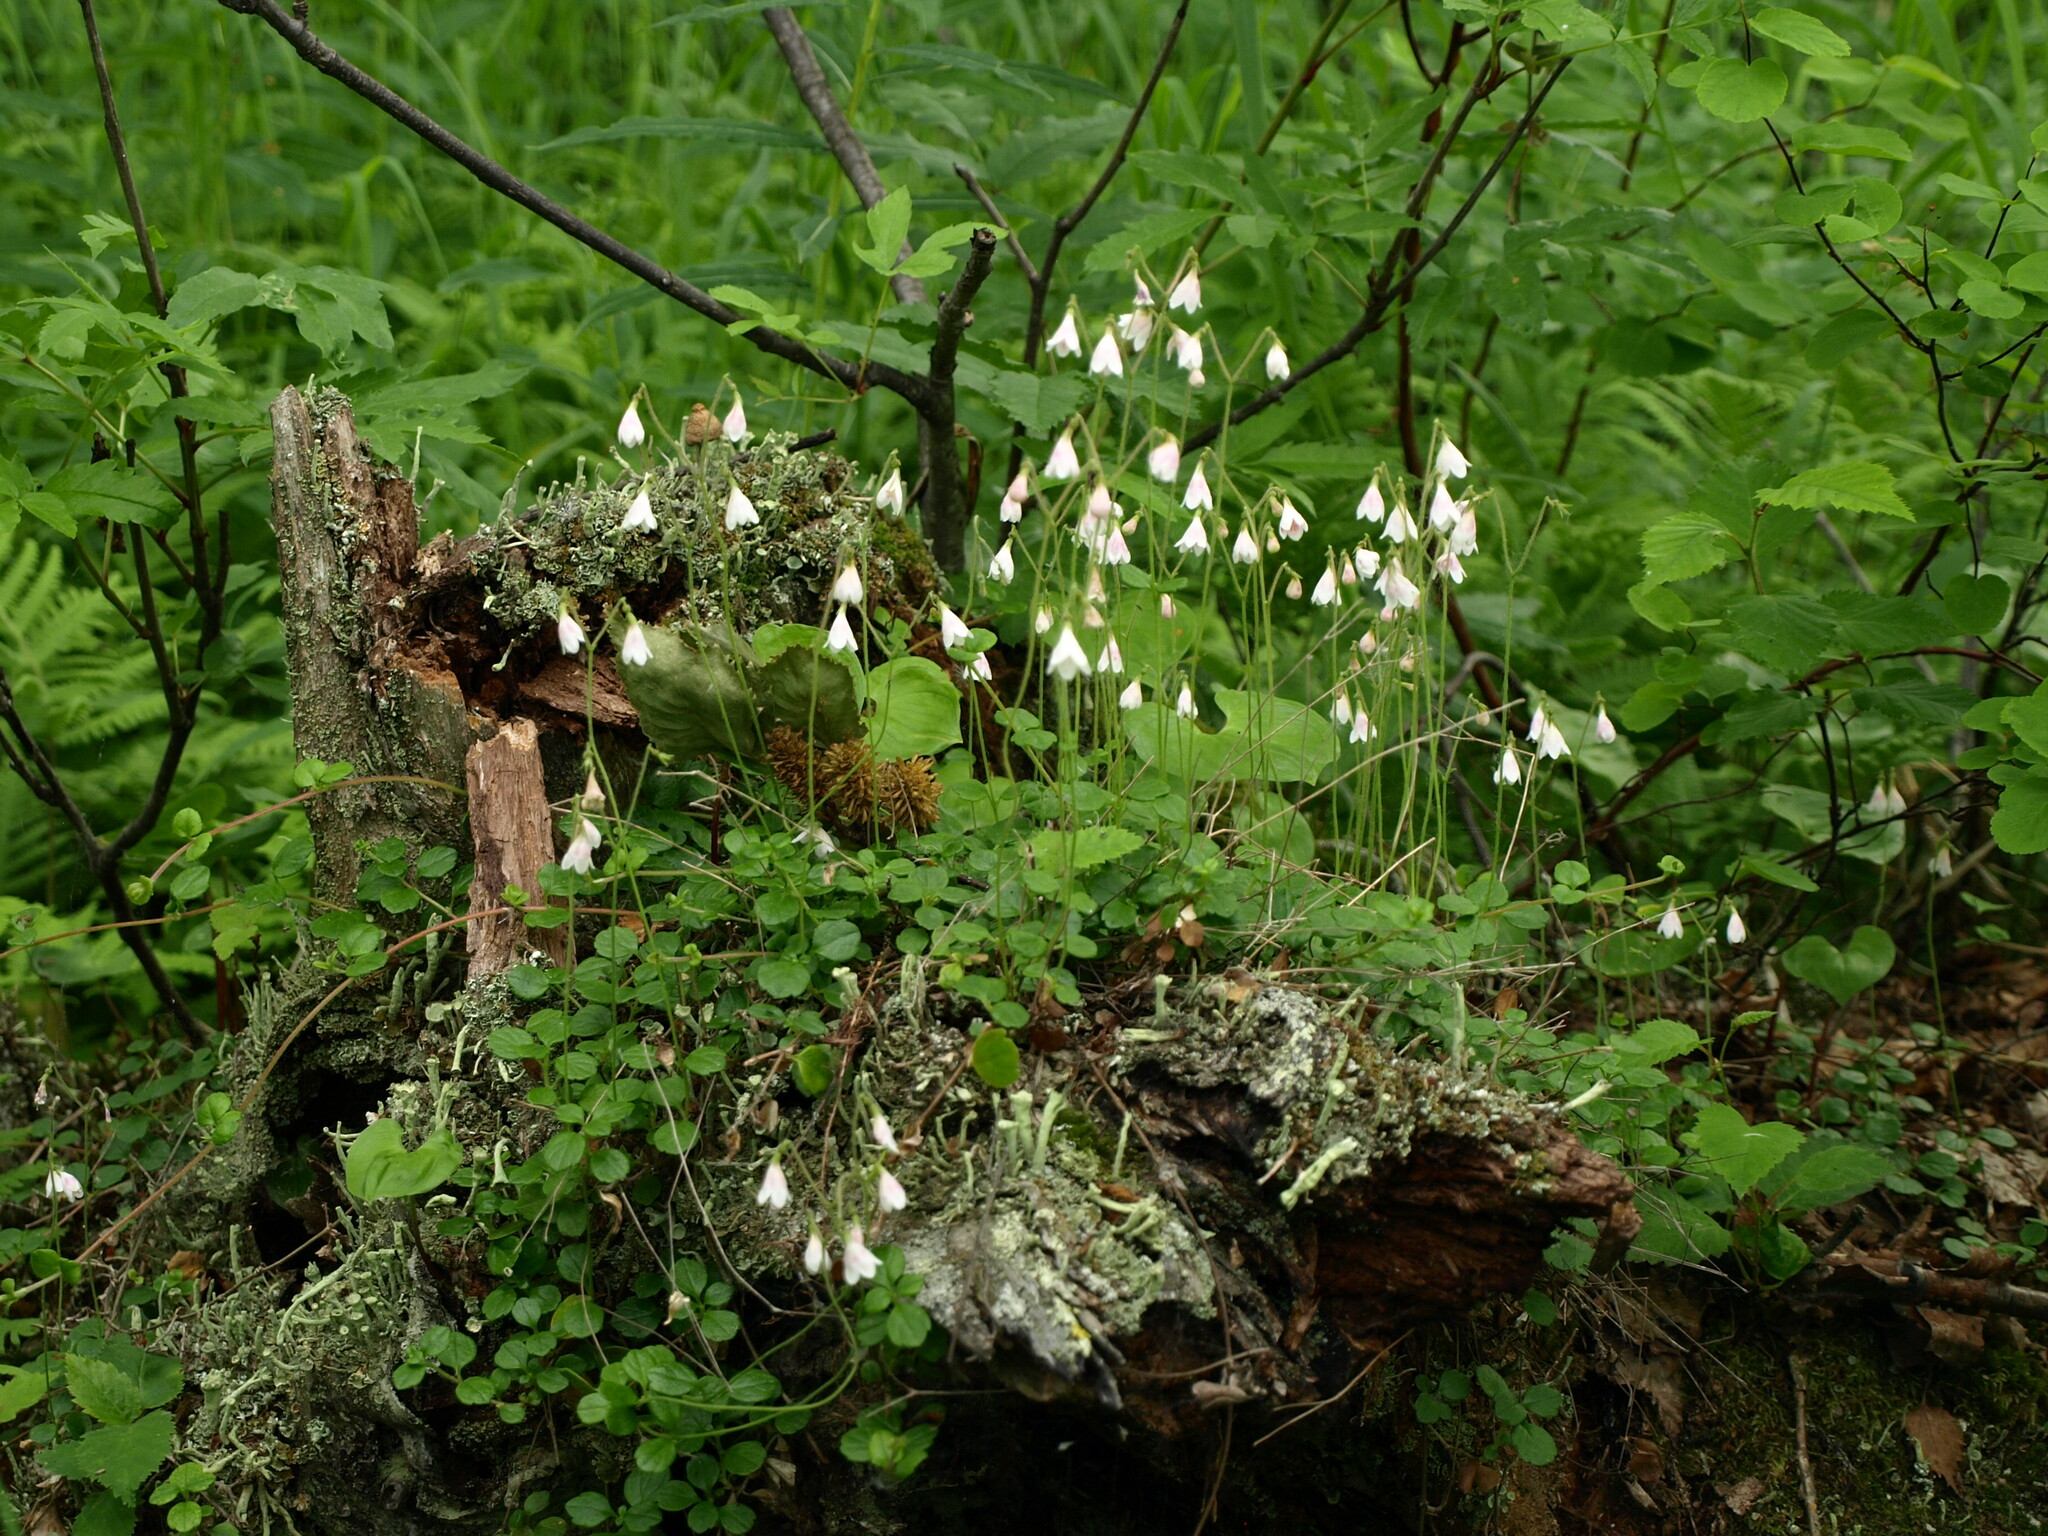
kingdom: Plantae
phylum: Tracheophyta
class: Magnoliopsida
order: Dipsacales
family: Caprifoliaceae
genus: Linnaea
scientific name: Linnaea borealis
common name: Twinflower
